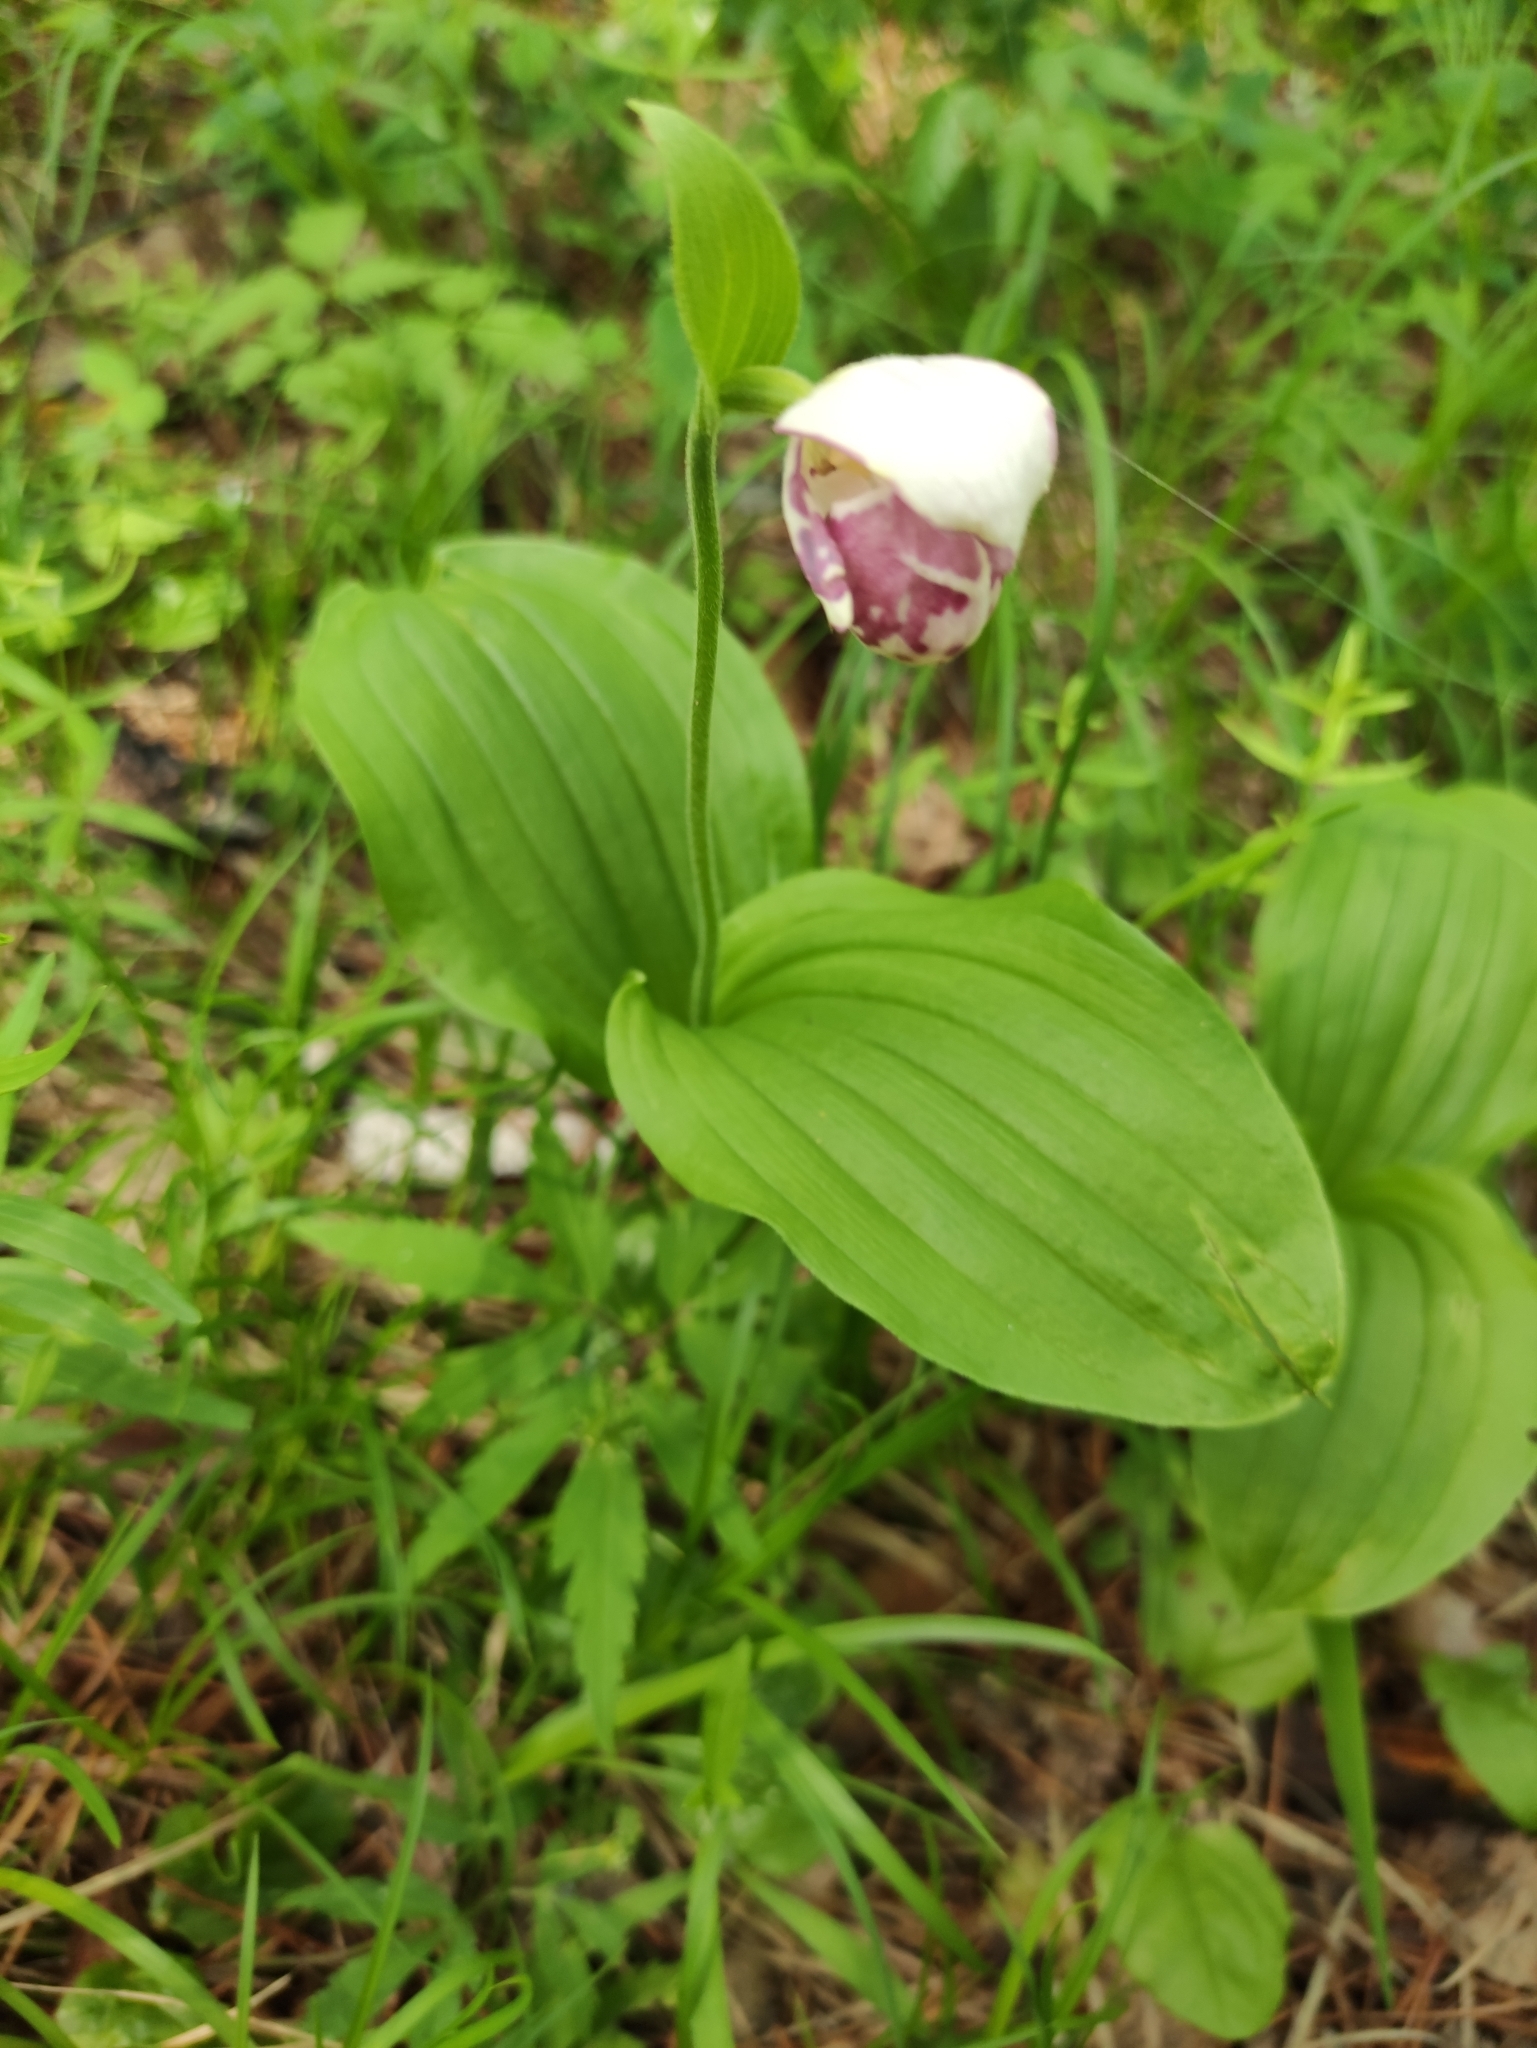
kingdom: Plantae
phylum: Tracheophyta
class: Liliopsida
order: Asparagales
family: Orchidaceae
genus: Cypripedium
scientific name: Cypripedium guttatum
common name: Pink lady slipper
